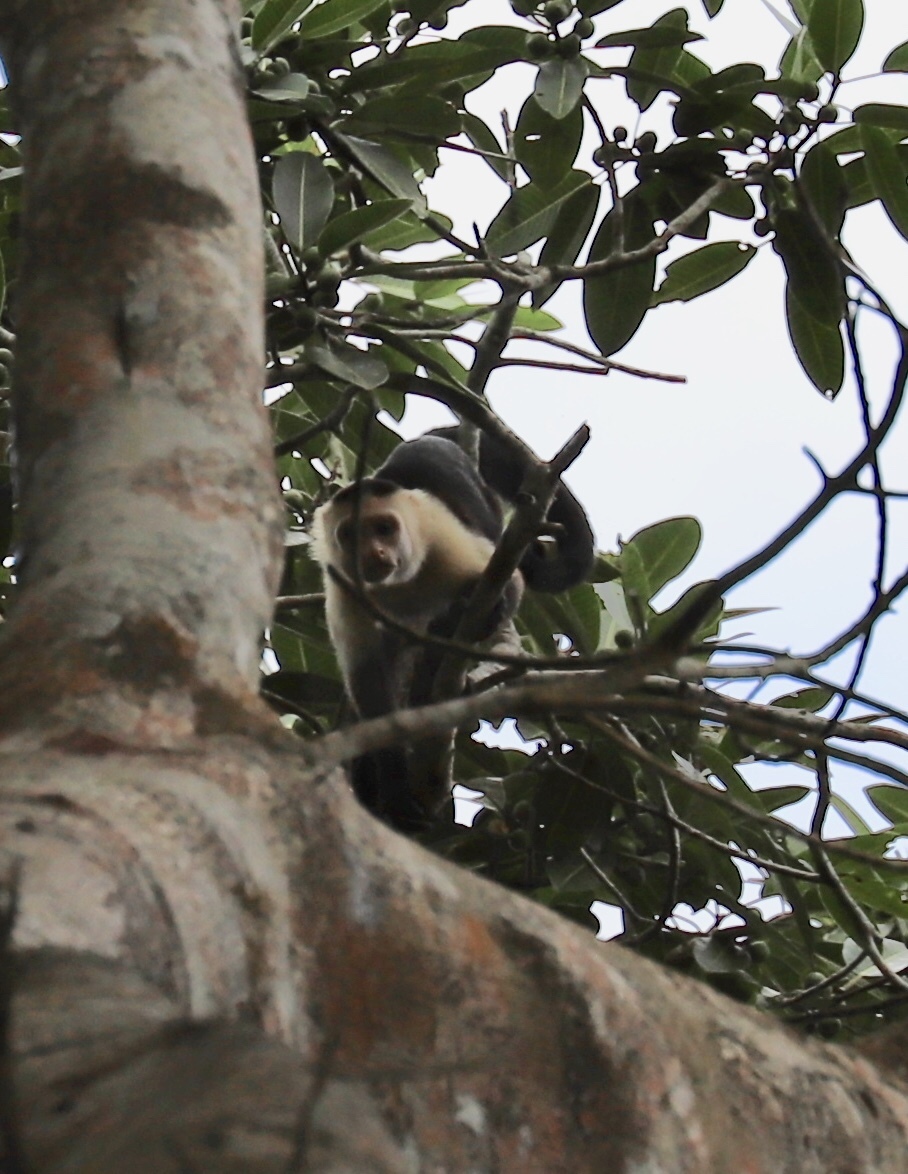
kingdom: Animalia
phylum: Chordata
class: Mammalia
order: Primates
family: Cebidae
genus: Cebus
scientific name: Cebus imitator
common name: Panamanian white-faced capuchin
